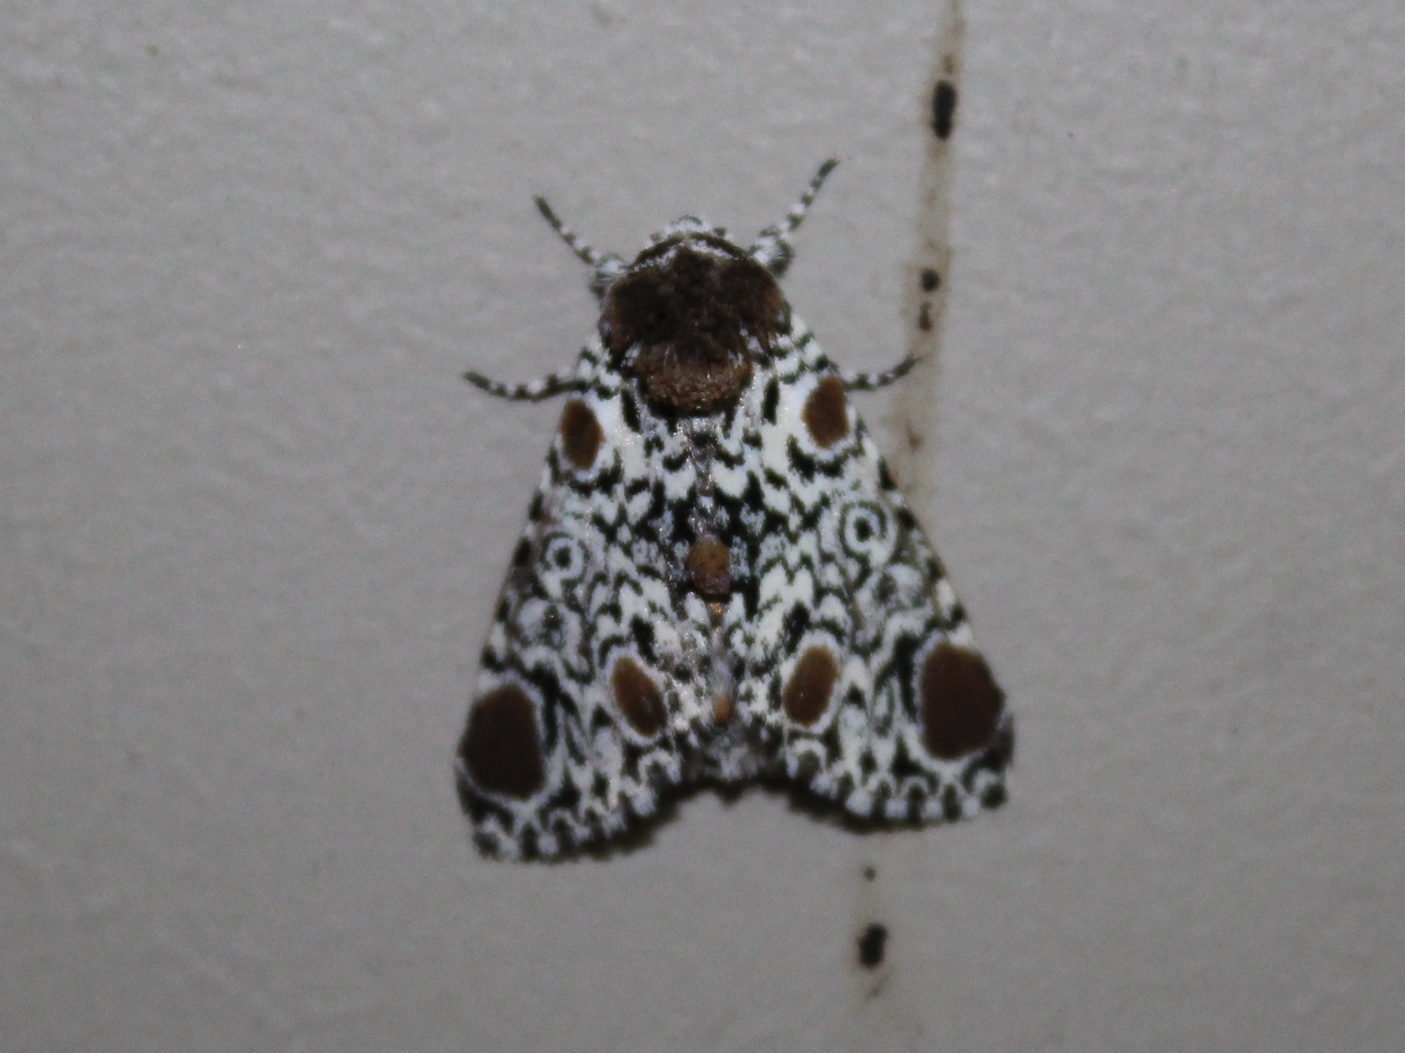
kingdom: Animalia
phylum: Arthropoda
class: Insecta
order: Lepidoptera
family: Noctuidae
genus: Harrisimemna
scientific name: Harrisimemna trisignata
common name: Harris threespot
